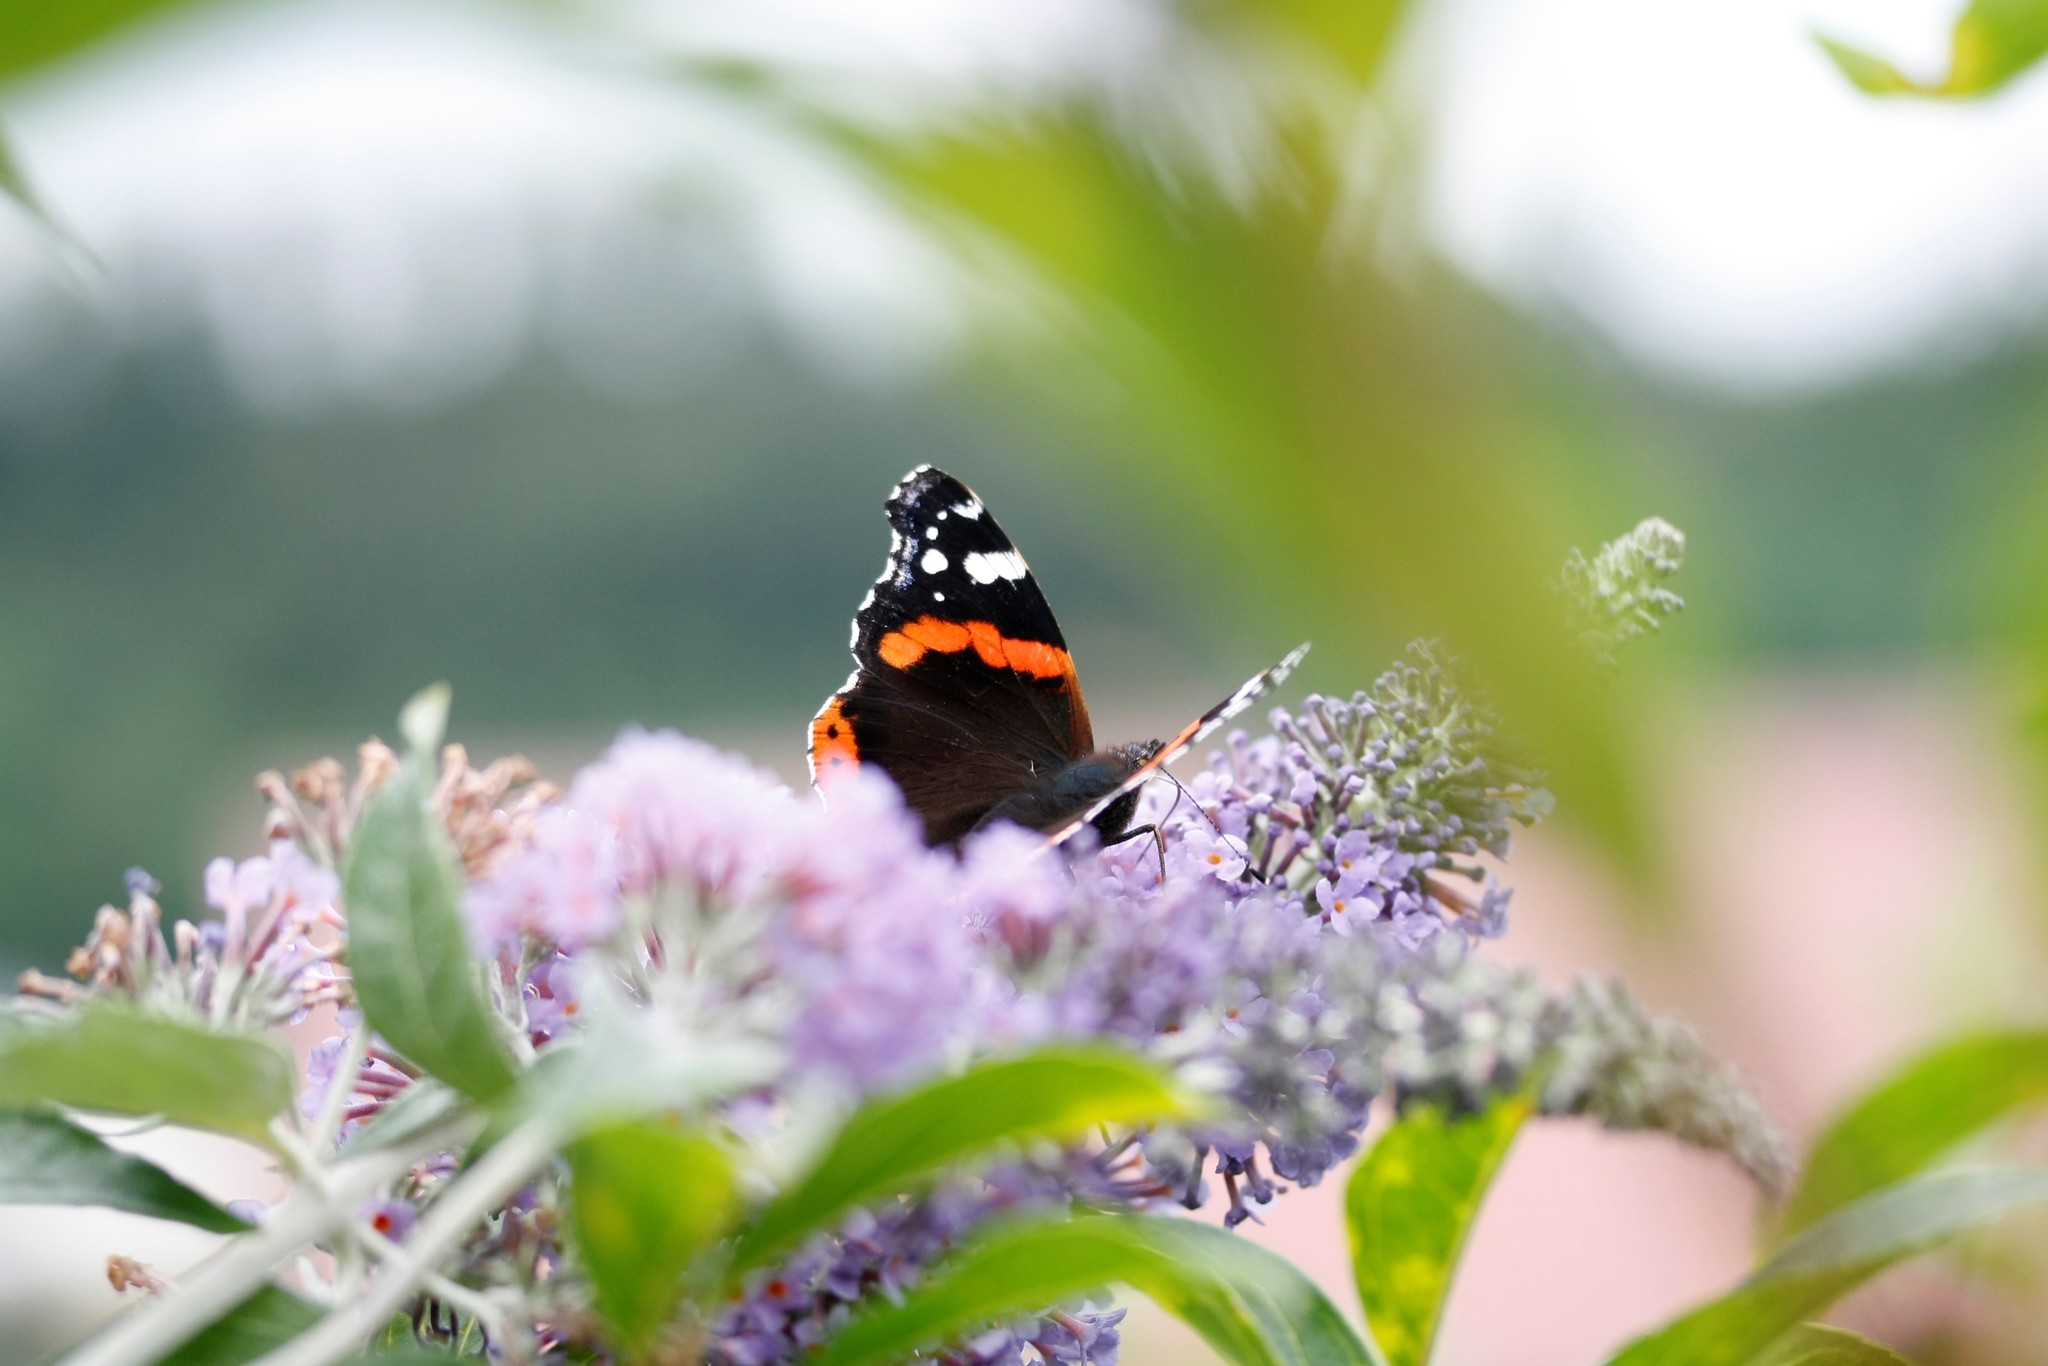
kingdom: Animalia
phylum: Arthropoda
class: Insecta
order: Lepidoptera
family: Nymphalidae
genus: Vanessa
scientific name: Vanessa atalanta
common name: Red admiral
